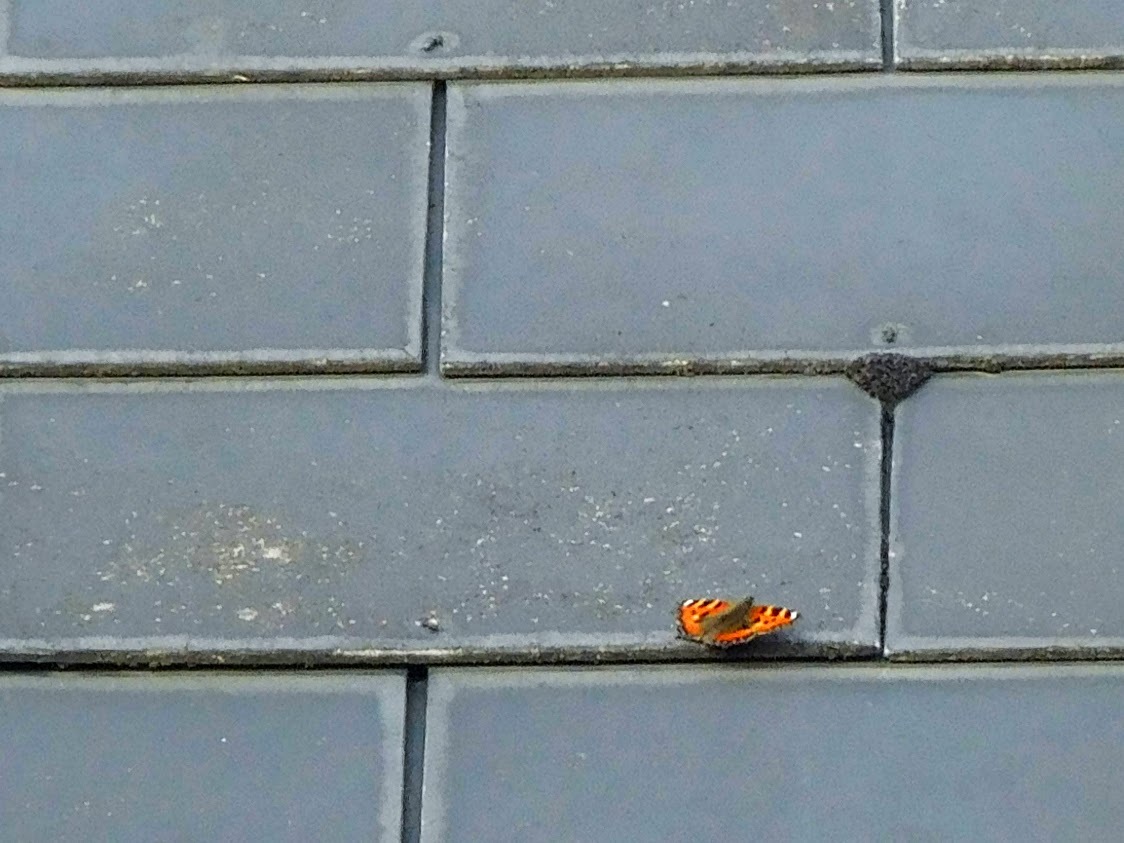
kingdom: Animalia
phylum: Arthropoda
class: Insecta
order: Lepidoptera
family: Nymphalidae
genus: Aglais
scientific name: Aglais urticae
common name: Small tortoiseshell
